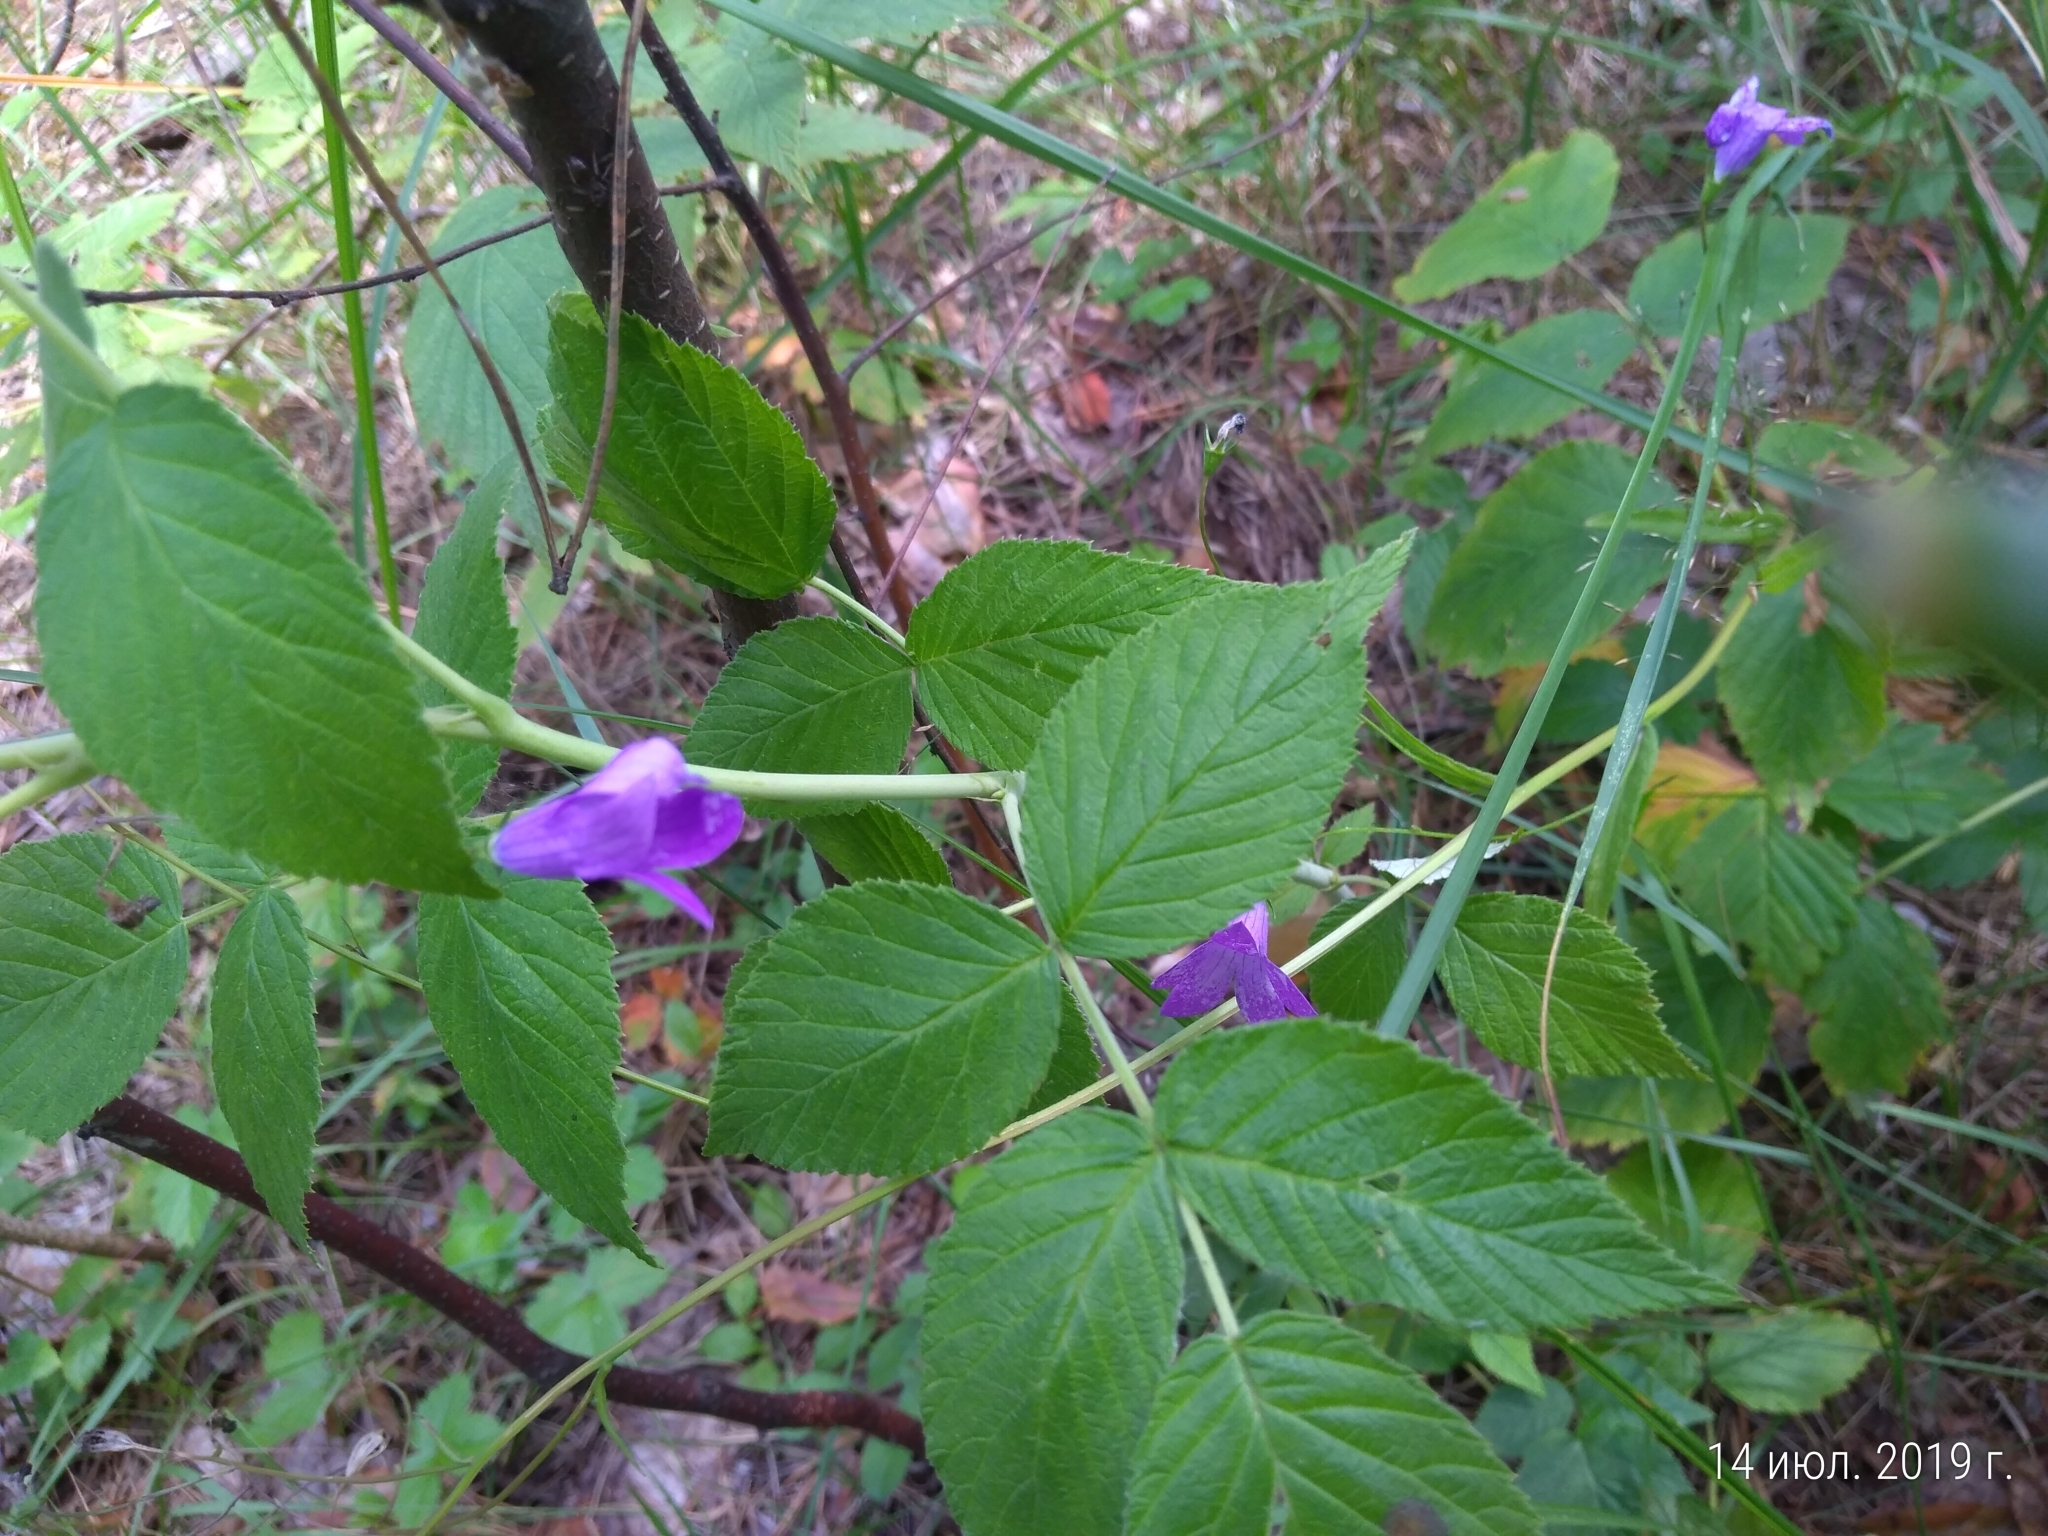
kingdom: Plantae
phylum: Tracheophyta
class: Magnoliopsida
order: Asterales
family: Campanulaceae
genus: Campanula
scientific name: Campanula patula
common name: Spreading bellflower
